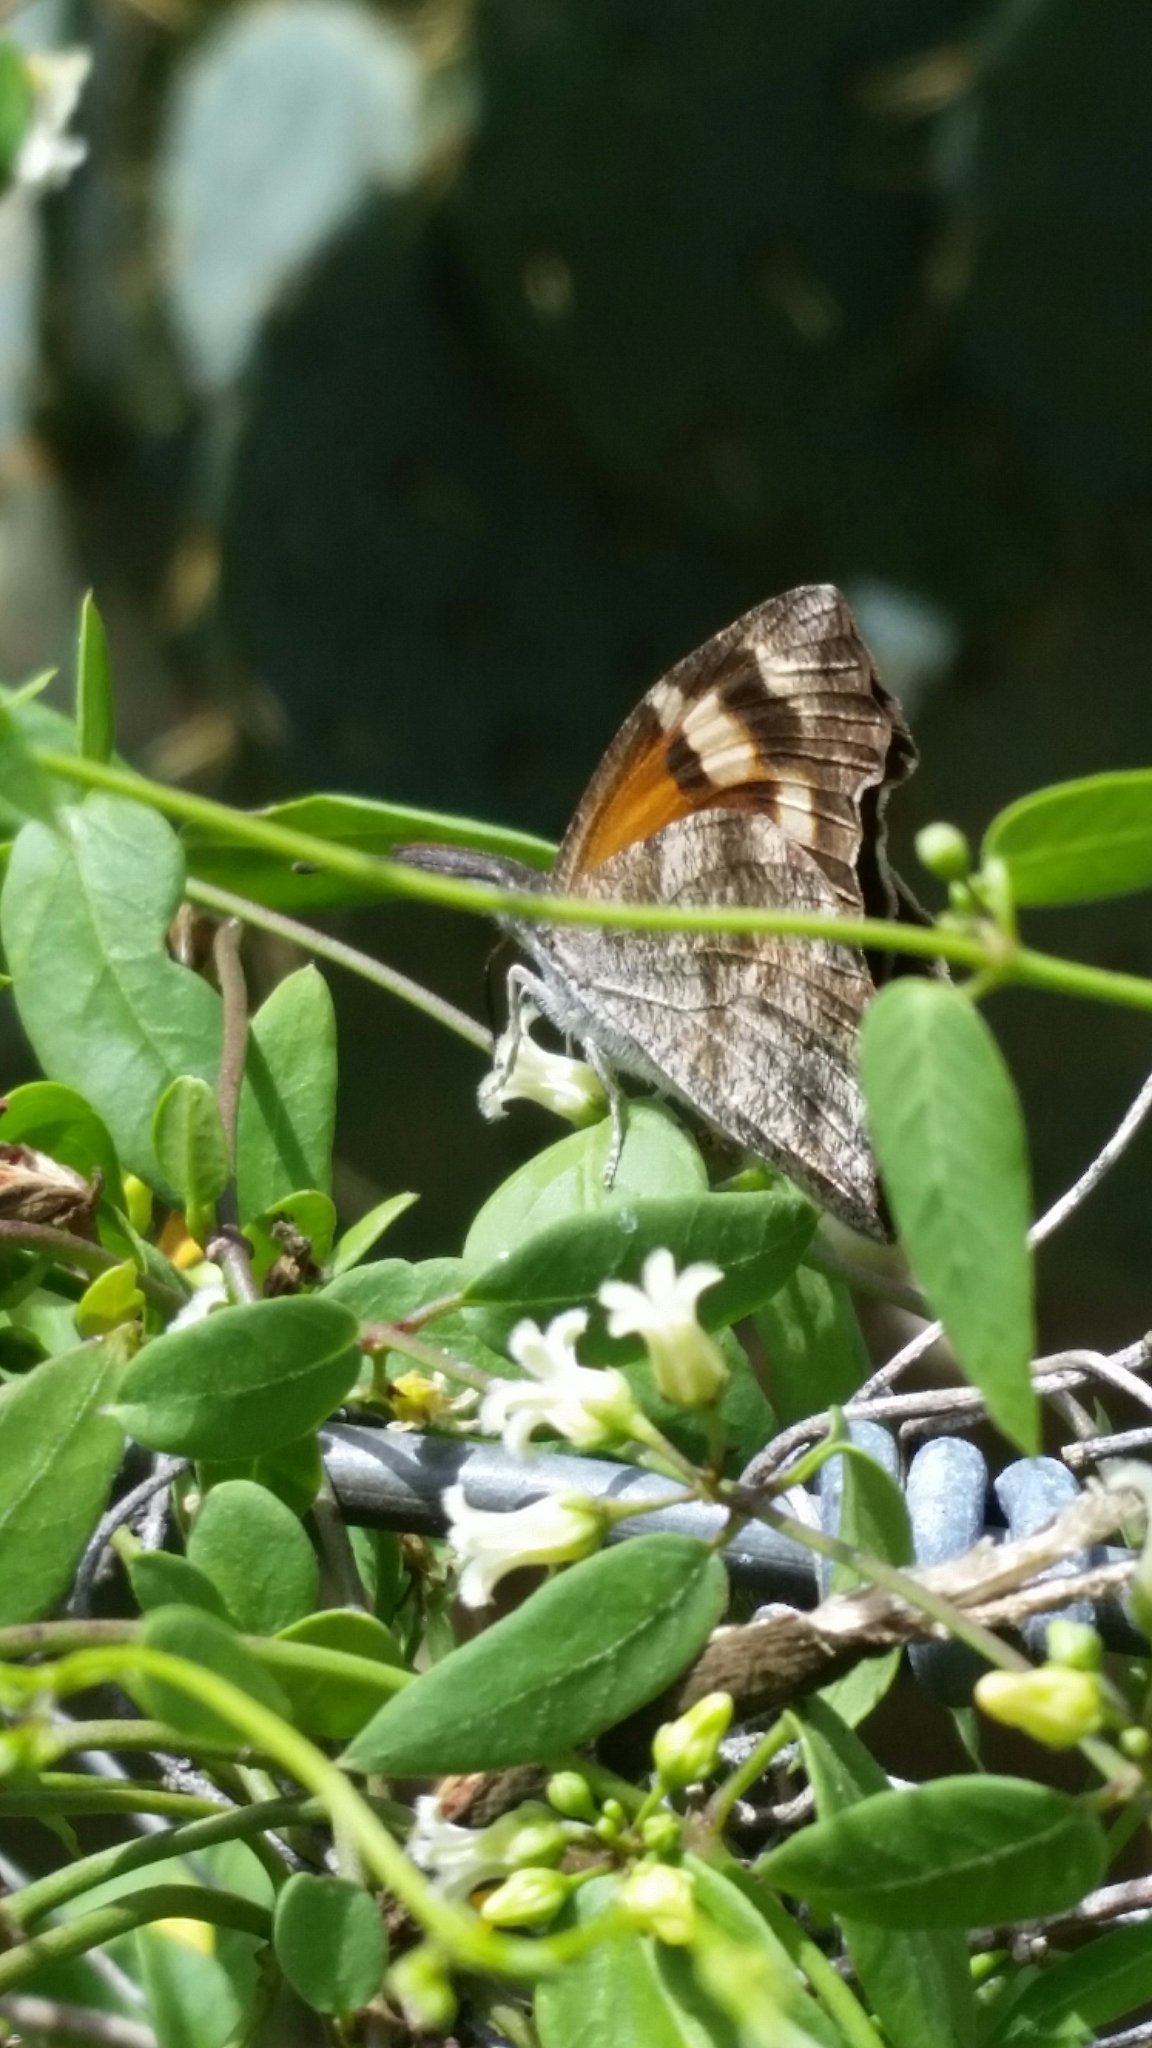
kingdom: Animalia
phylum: Arthropoda
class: Insecta
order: Lepidoptera
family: Nymphalidae
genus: Libytheana
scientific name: Libytheana carinenta
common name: American snout
